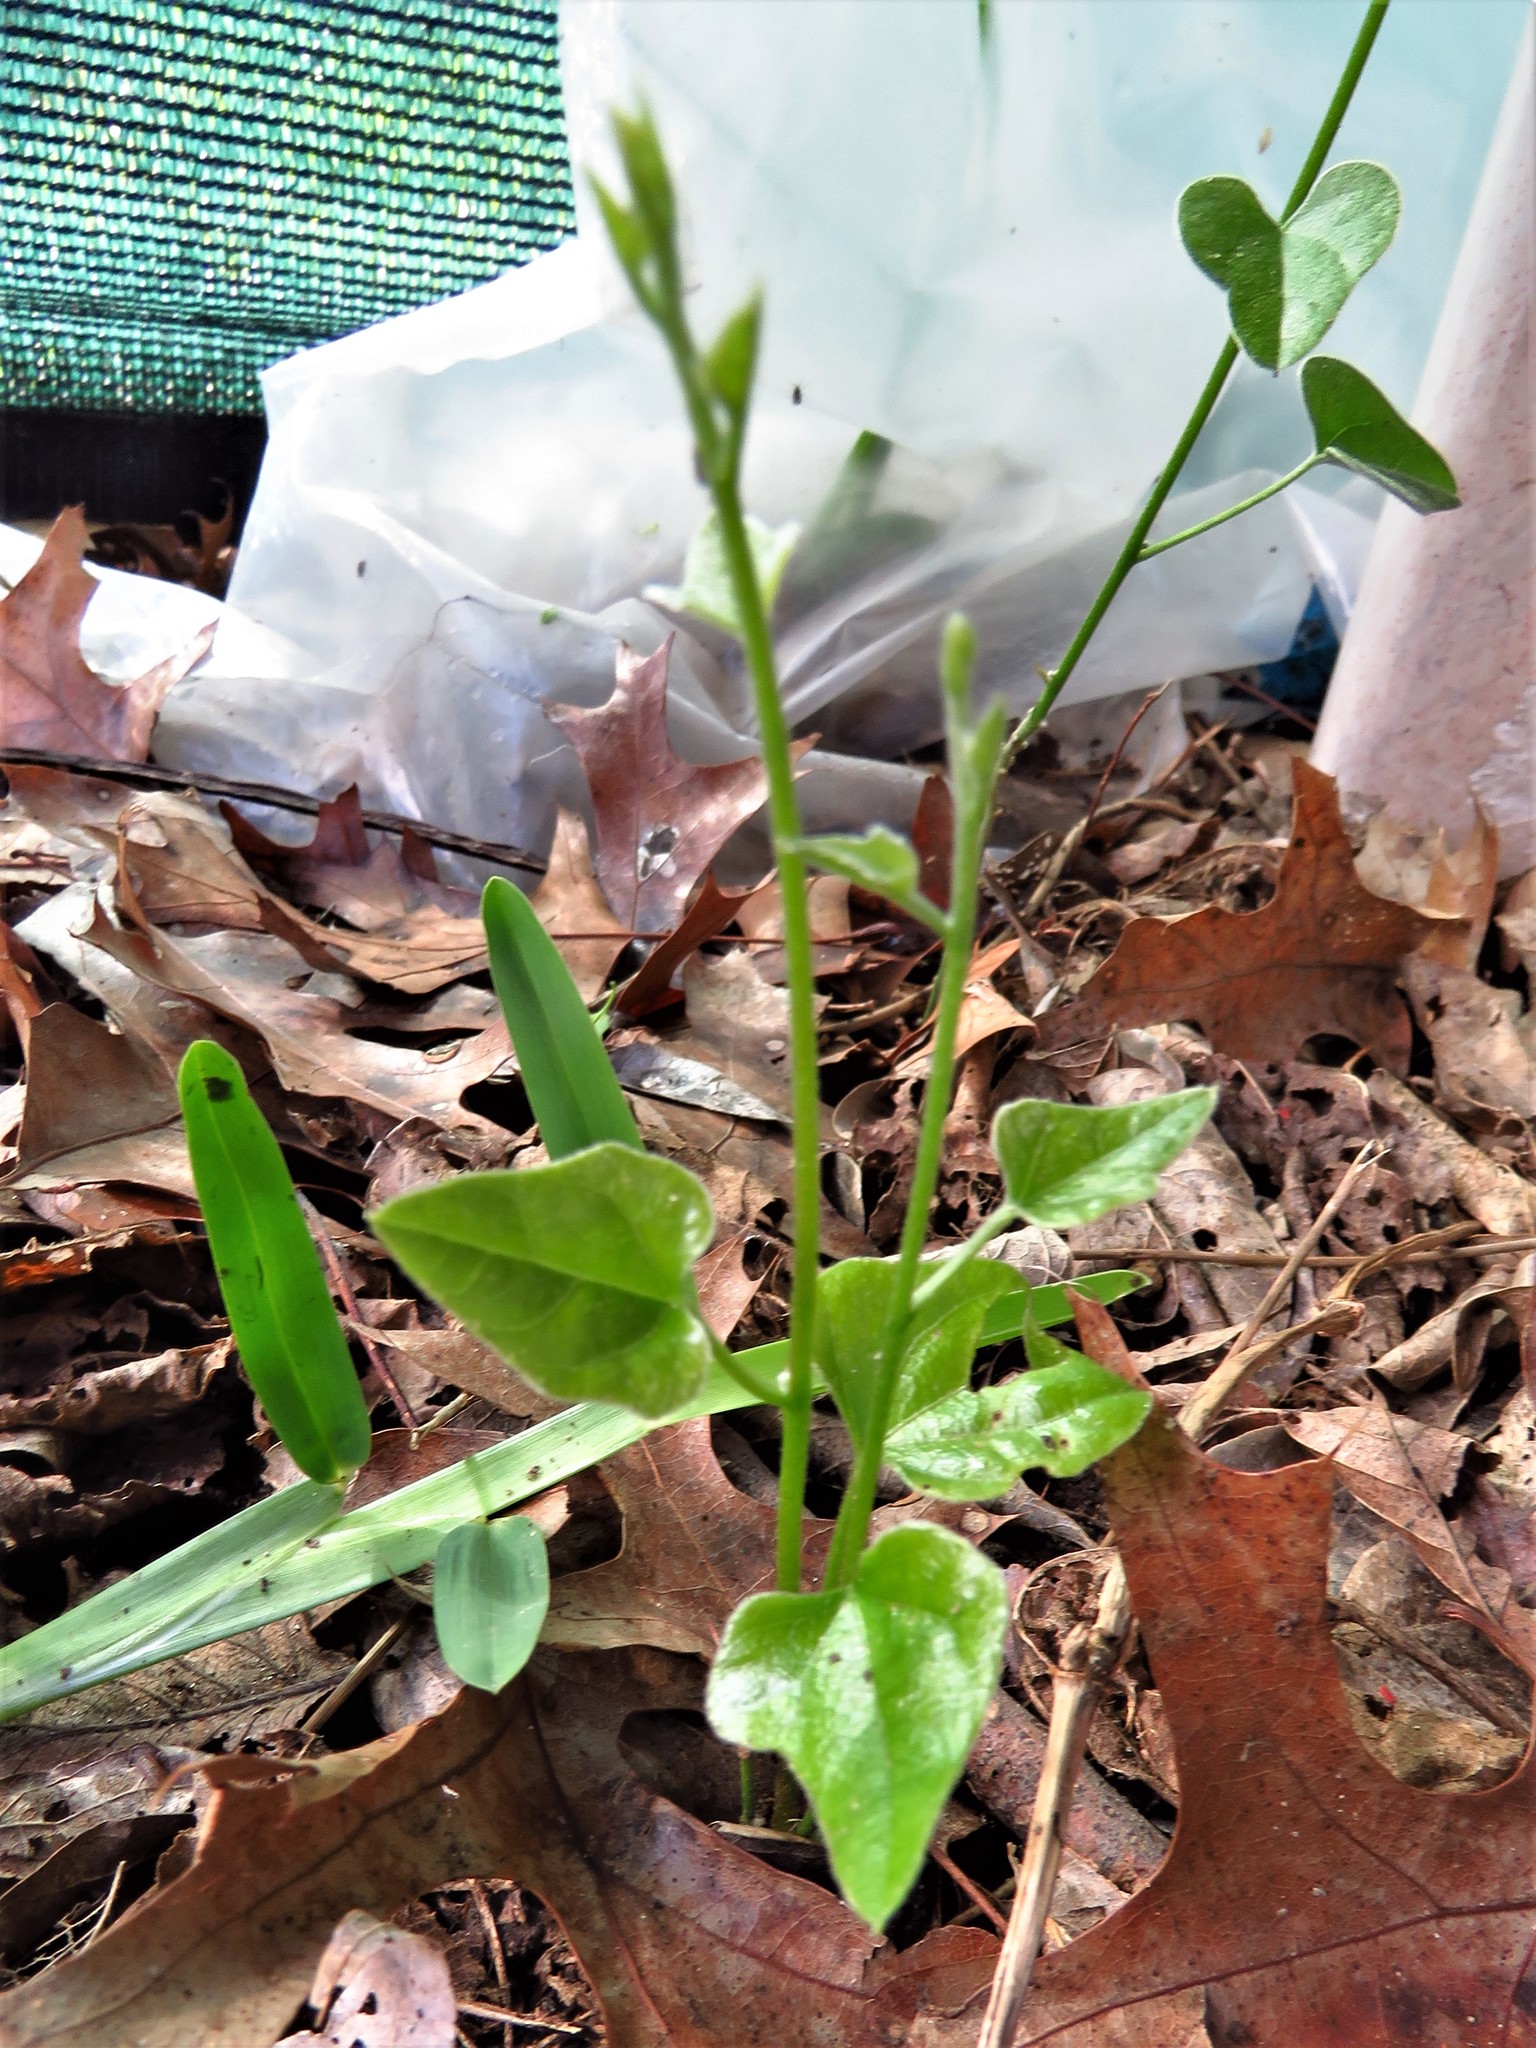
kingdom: Plantae
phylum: Tracheophyta
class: Magnoliopsida
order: Ranunculales
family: Menispermaceae
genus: Cocculus
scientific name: Cocculus carolinus
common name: Carolina moonseed
